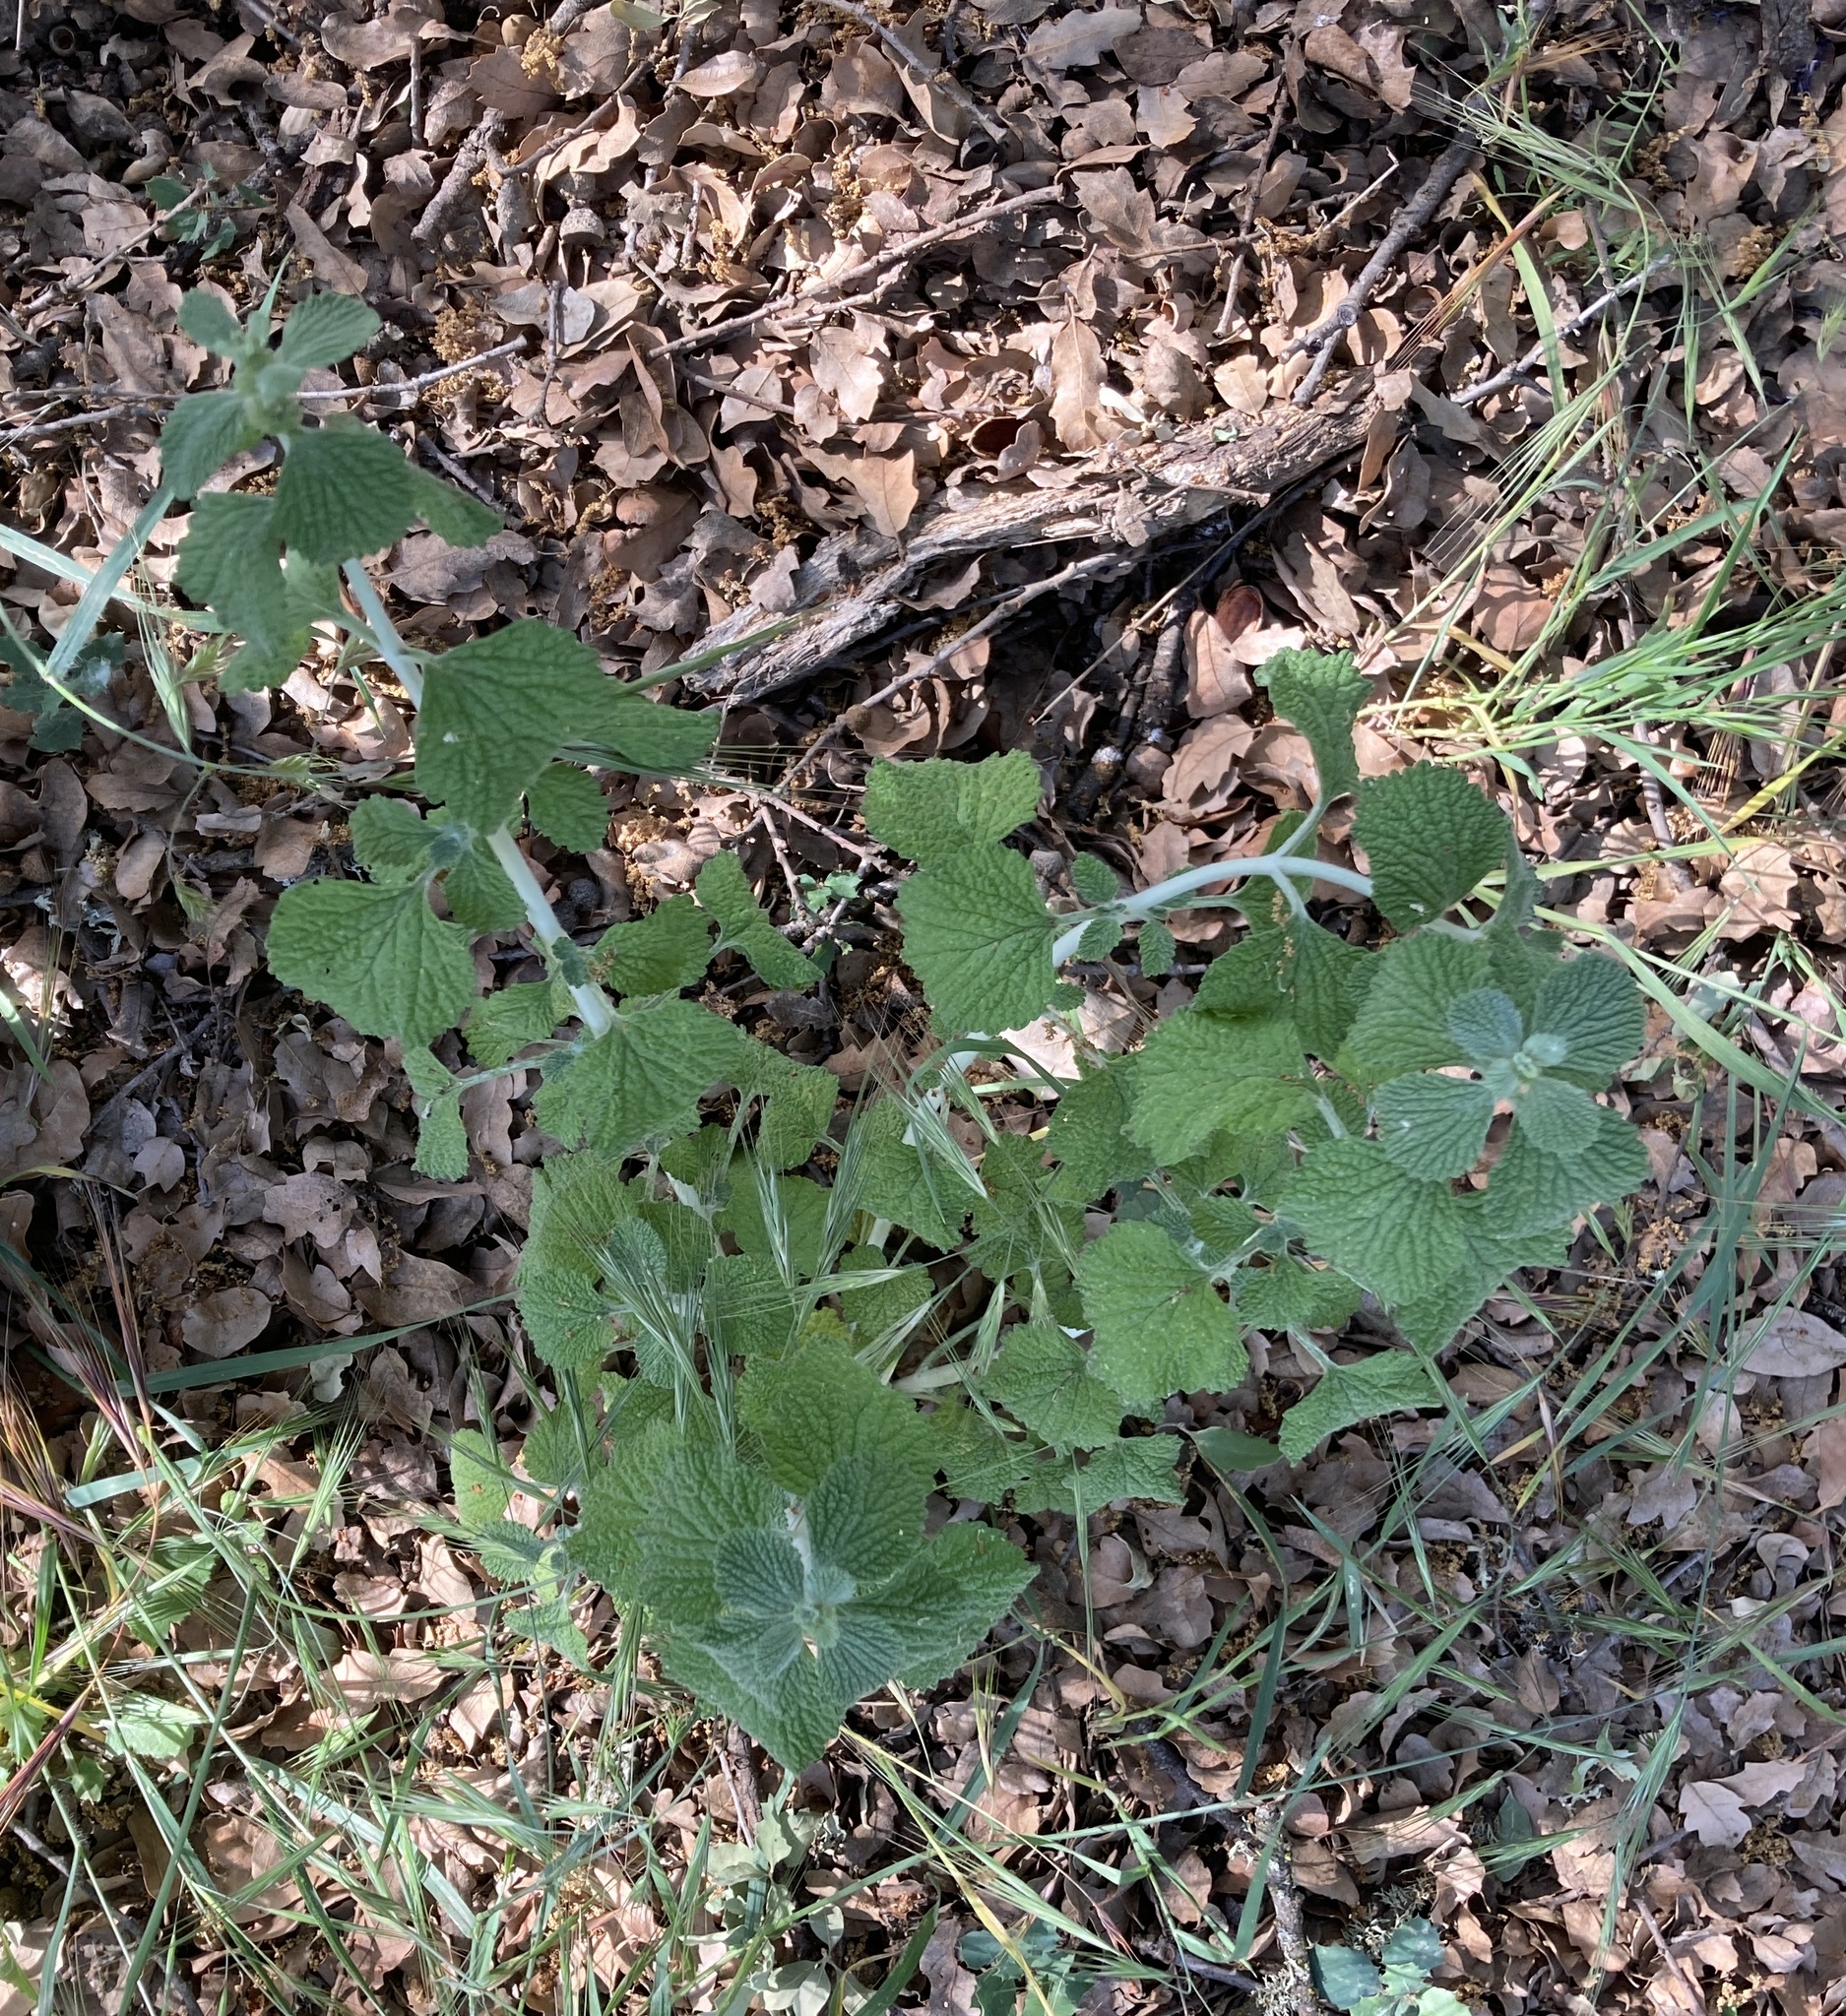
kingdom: Plantae
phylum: Tracheophyta
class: Magnoliopsida
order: Lamiales
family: Lamiaceae
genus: Marrubium
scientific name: Marrubium vulgare
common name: Horehound
